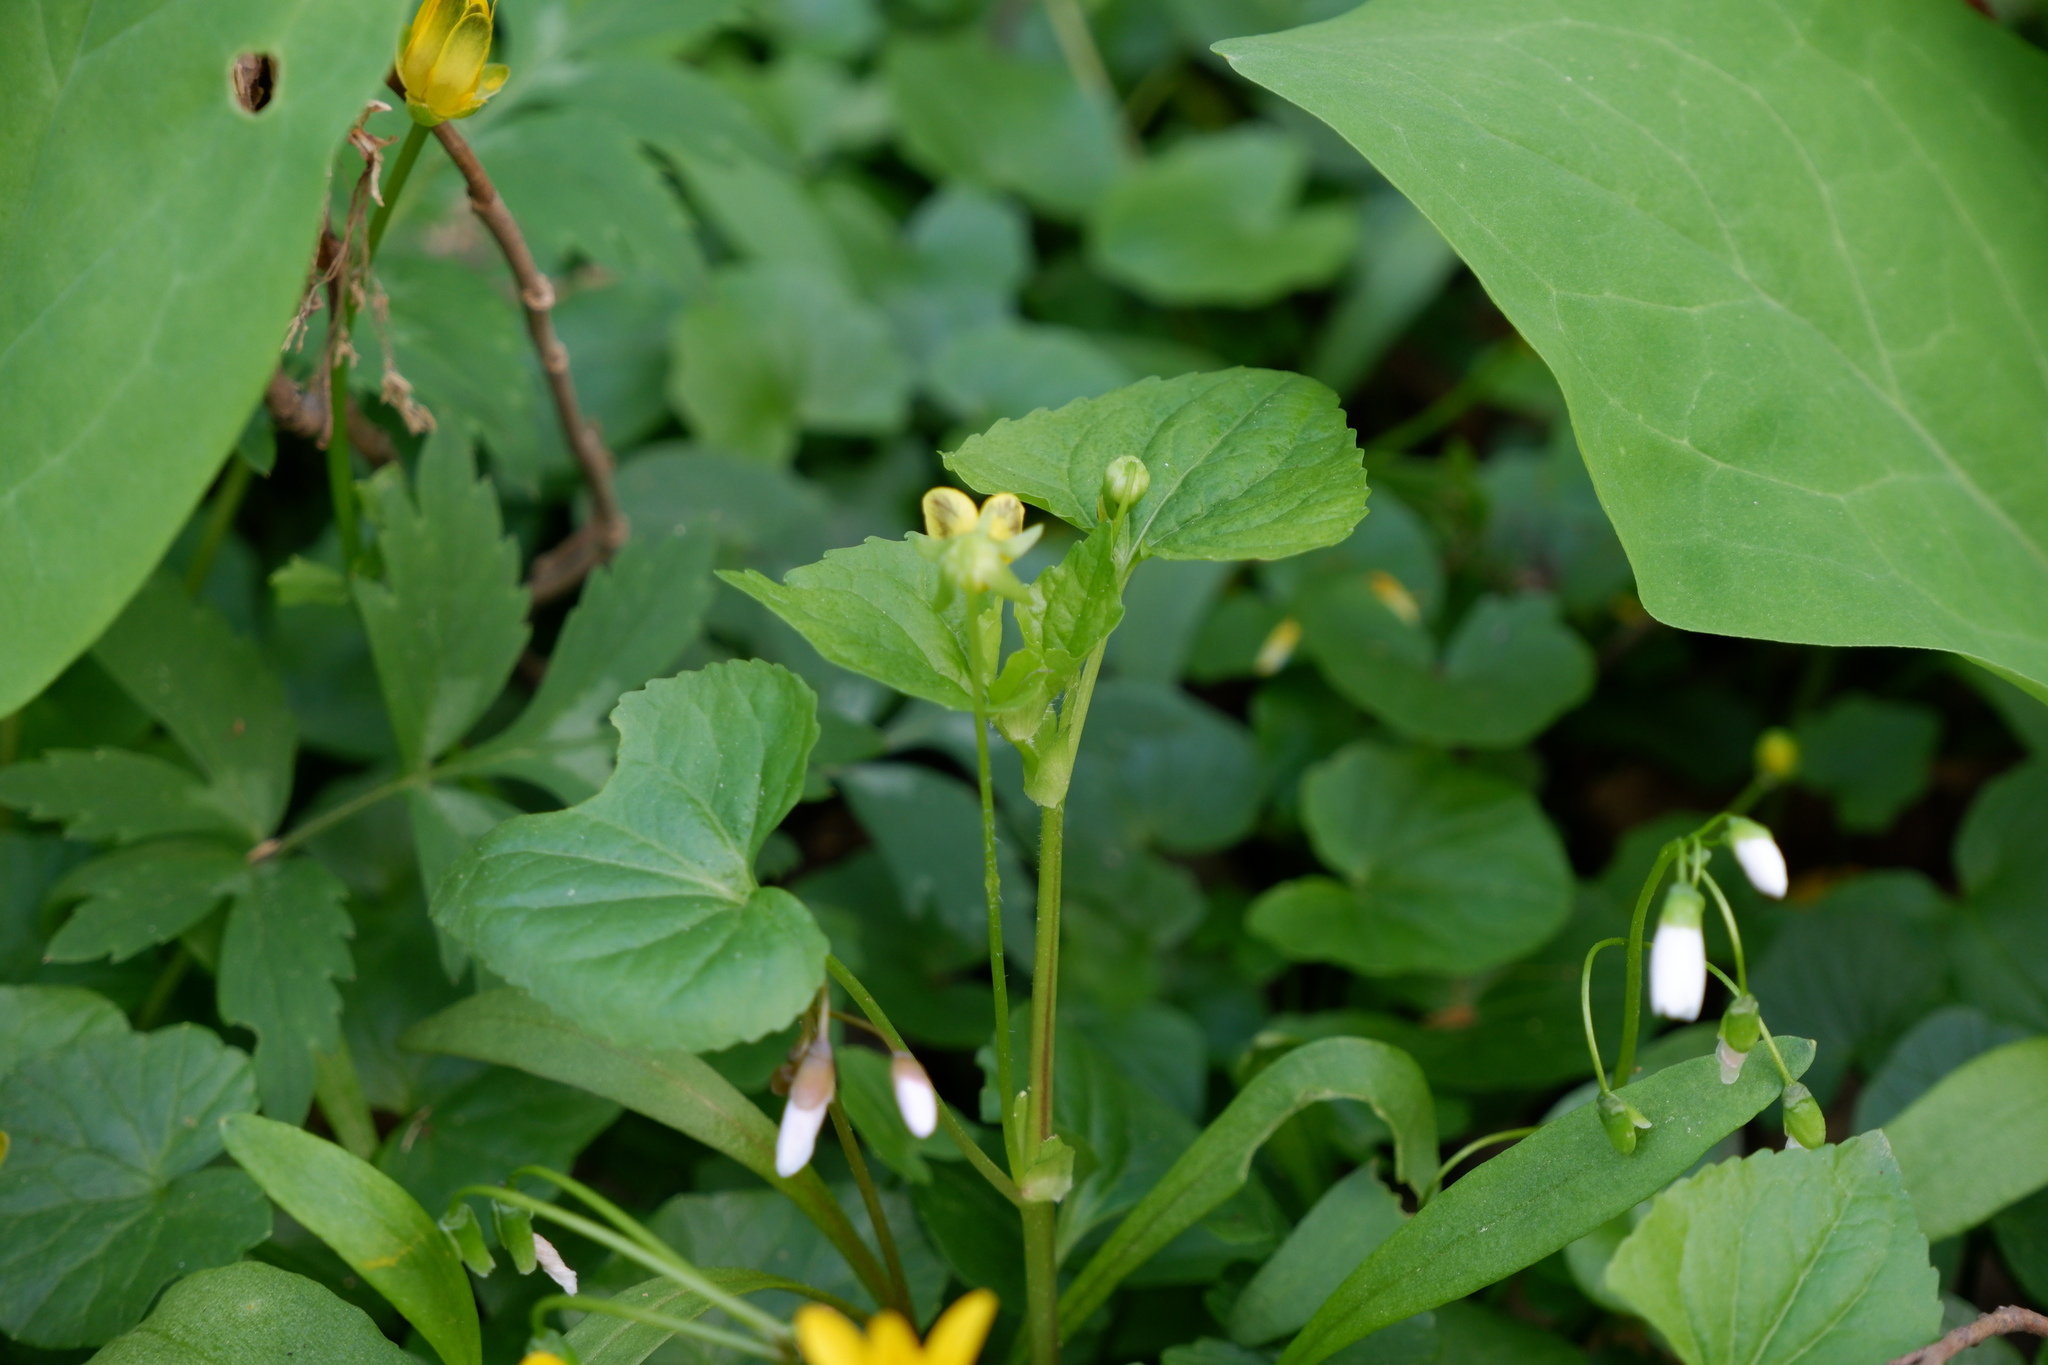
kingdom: Plantae
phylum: Tracheophyta
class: Magnoliopsida
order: Malpighiales
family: Violaceae
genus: Viola
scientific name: Viola eriocarpa
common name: Smooth yellow violet
